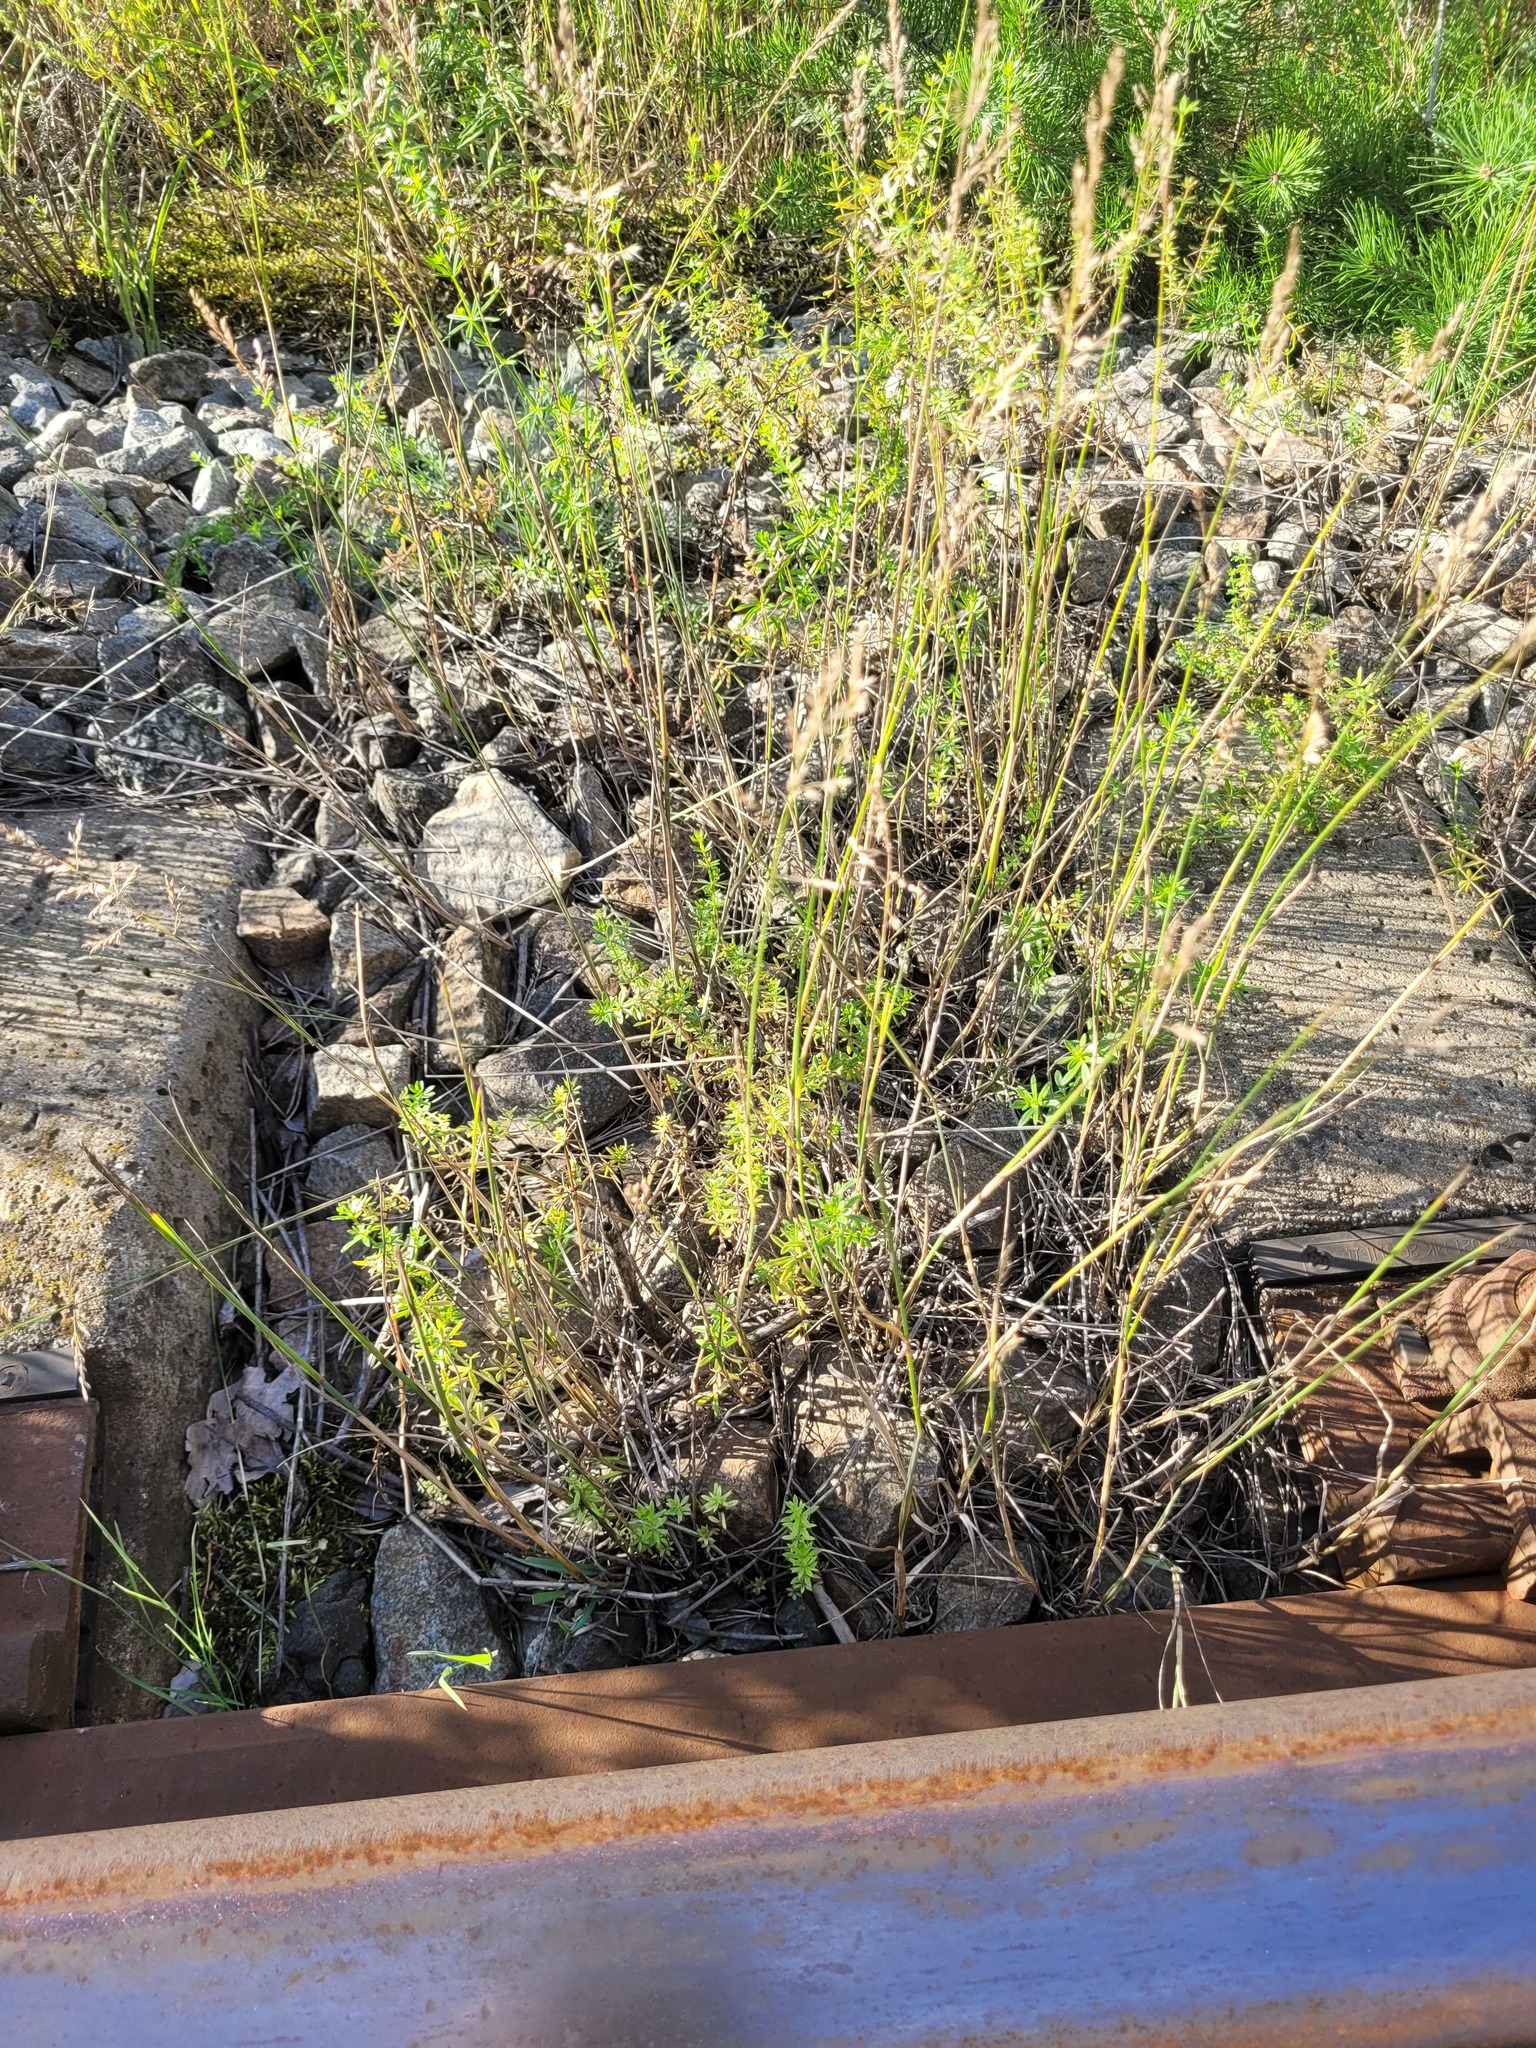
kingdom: Plantae
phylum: Tracheophyta
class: Liliopsida
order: Poales
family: Poaceae
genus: Poa
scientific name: Poa compressa
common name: Canada bluegrass
